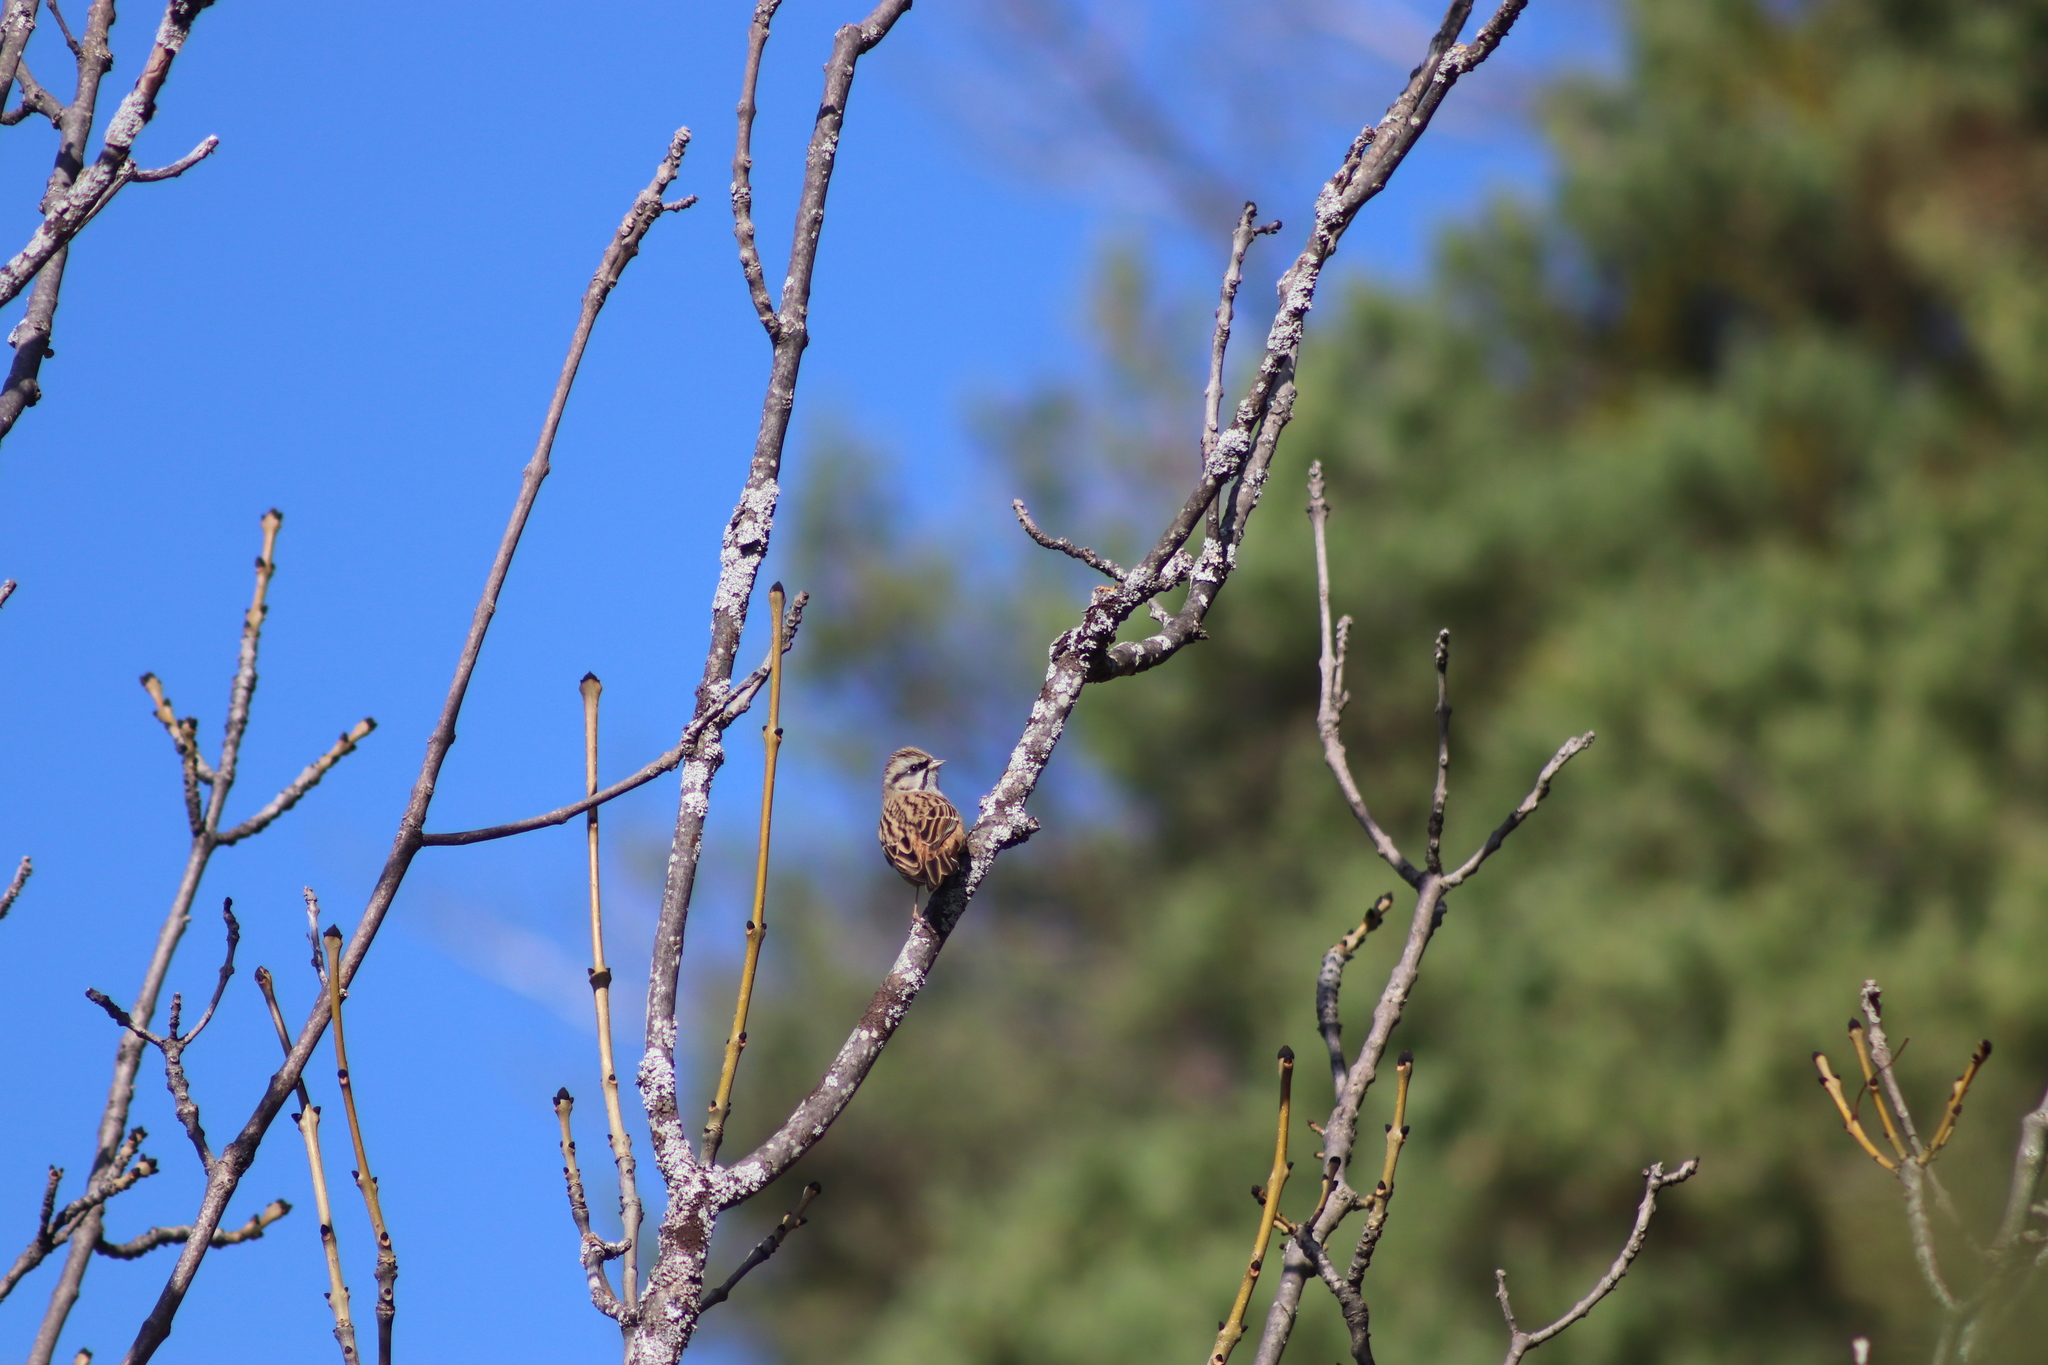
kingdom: Animalia
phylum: Chordata
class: Aves
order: Passeriformes
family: Emberizidae
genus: Emberiza
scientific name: Emberiza cia
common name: Rock bunting
